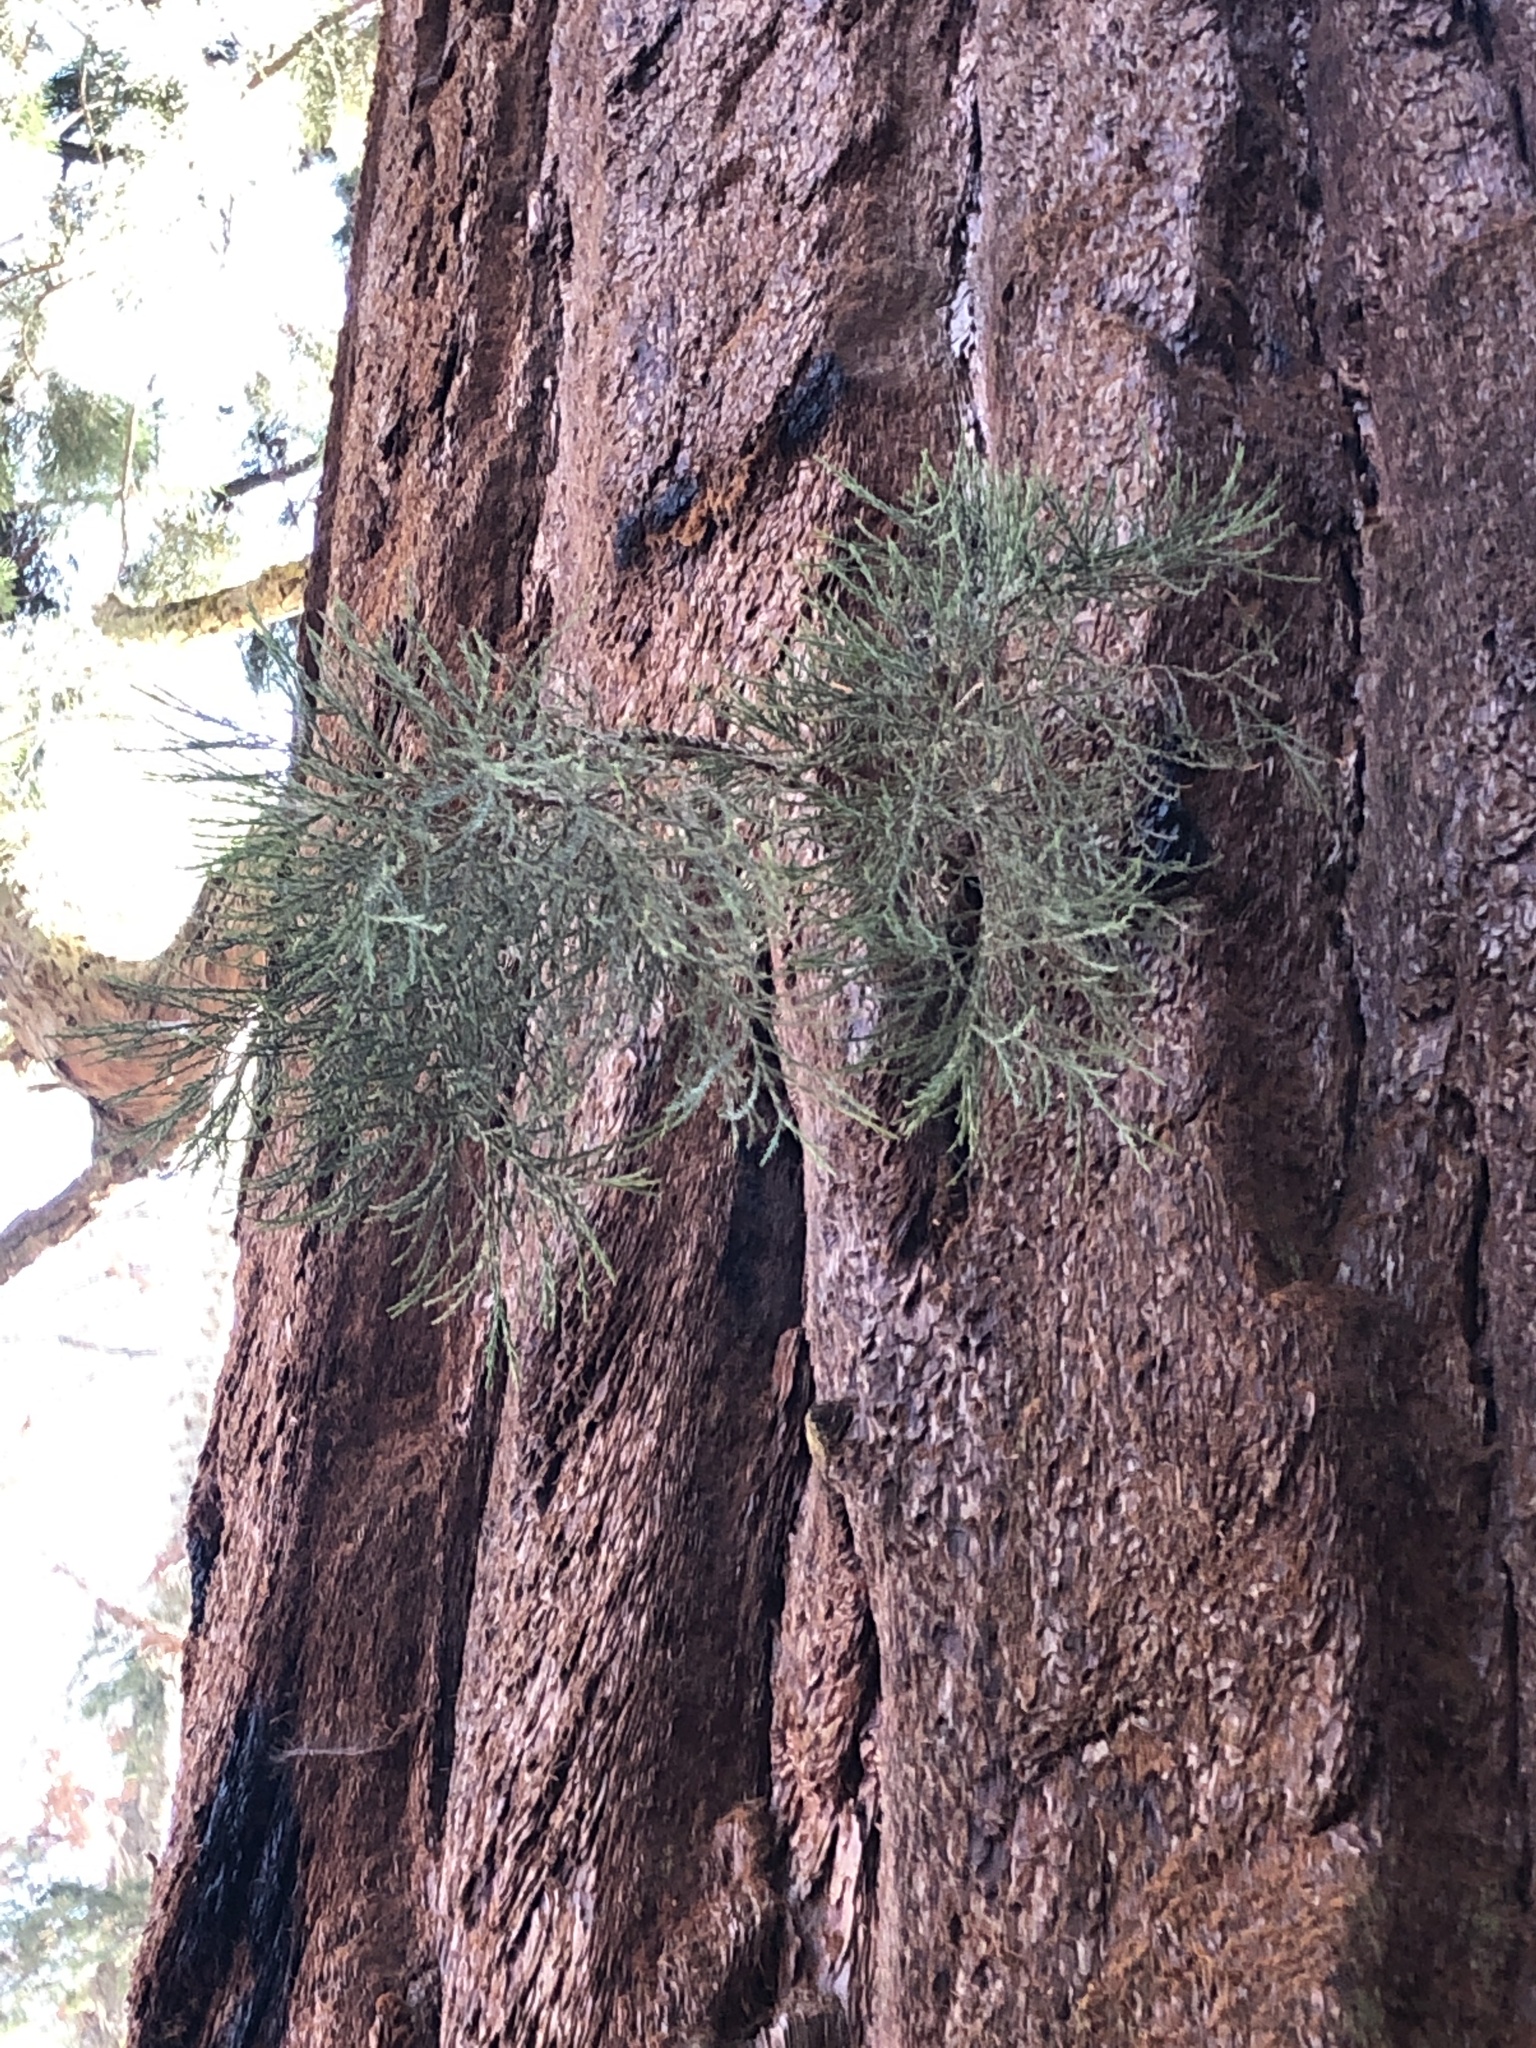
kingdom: Plantae
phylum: Tracheophyta
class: Pinopsida
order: Pinales
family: Cupressaceae
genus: Sequoiadendron
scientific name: Sequoiadendron giganteum
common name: Wellingtonia
